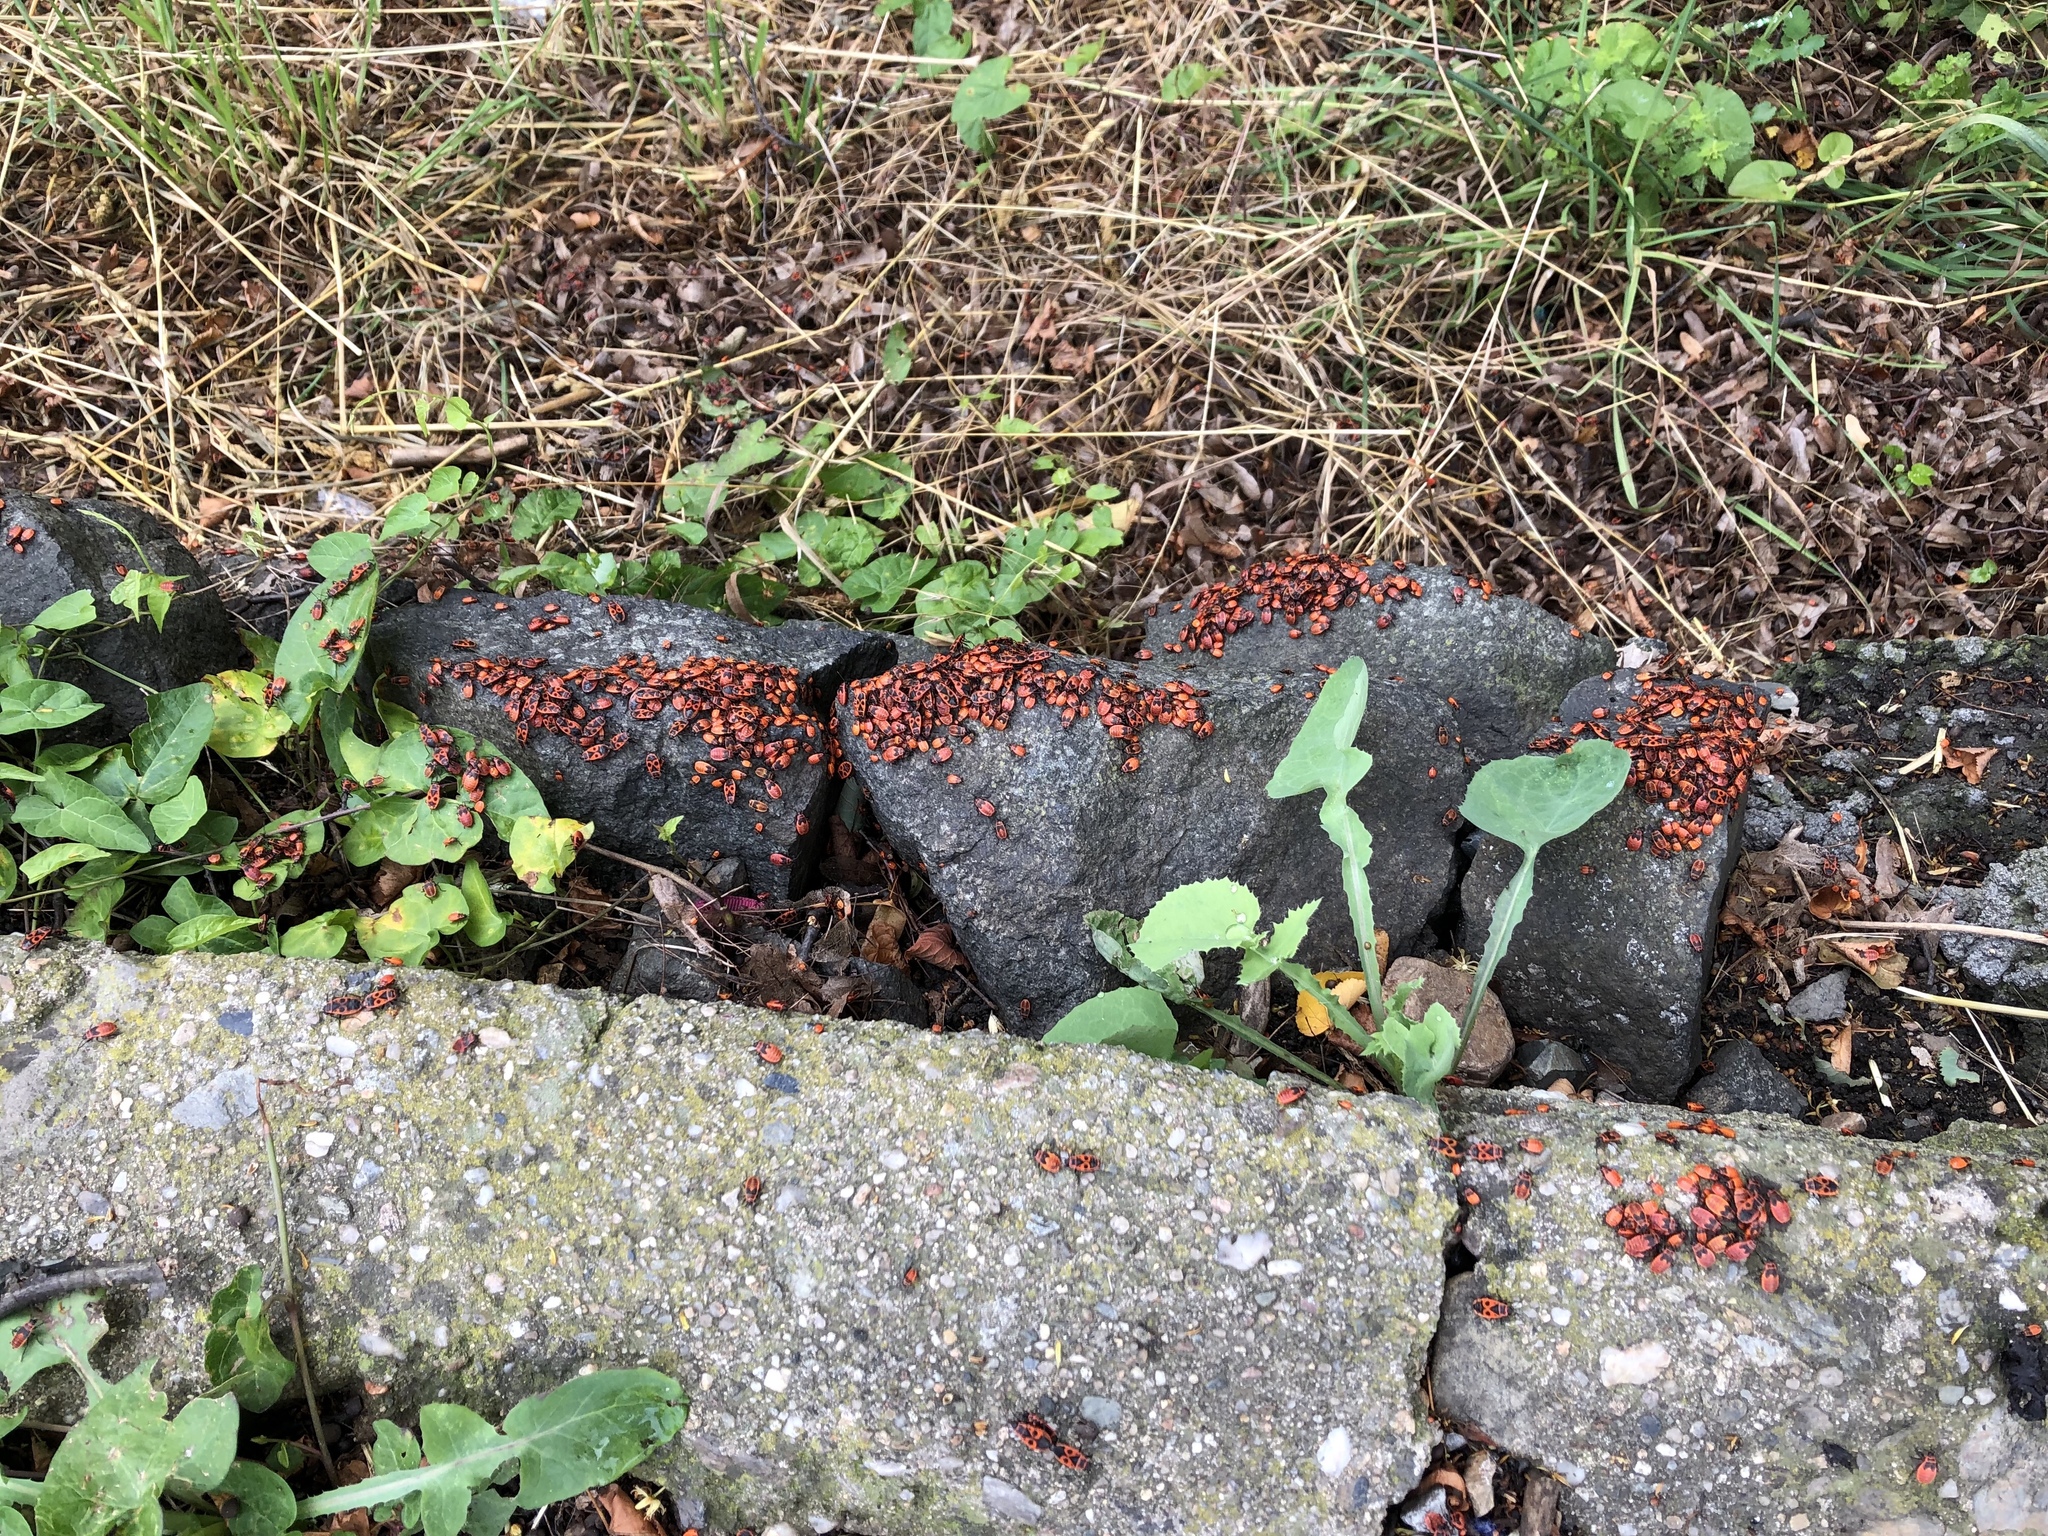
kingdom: Animalia
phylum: Arthropoda
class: Insecta
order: Hemiptera
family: Pyrrhocoridae
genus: Pyrrhocoris
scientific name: Pyrrhocoris apterus
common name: Firebug
